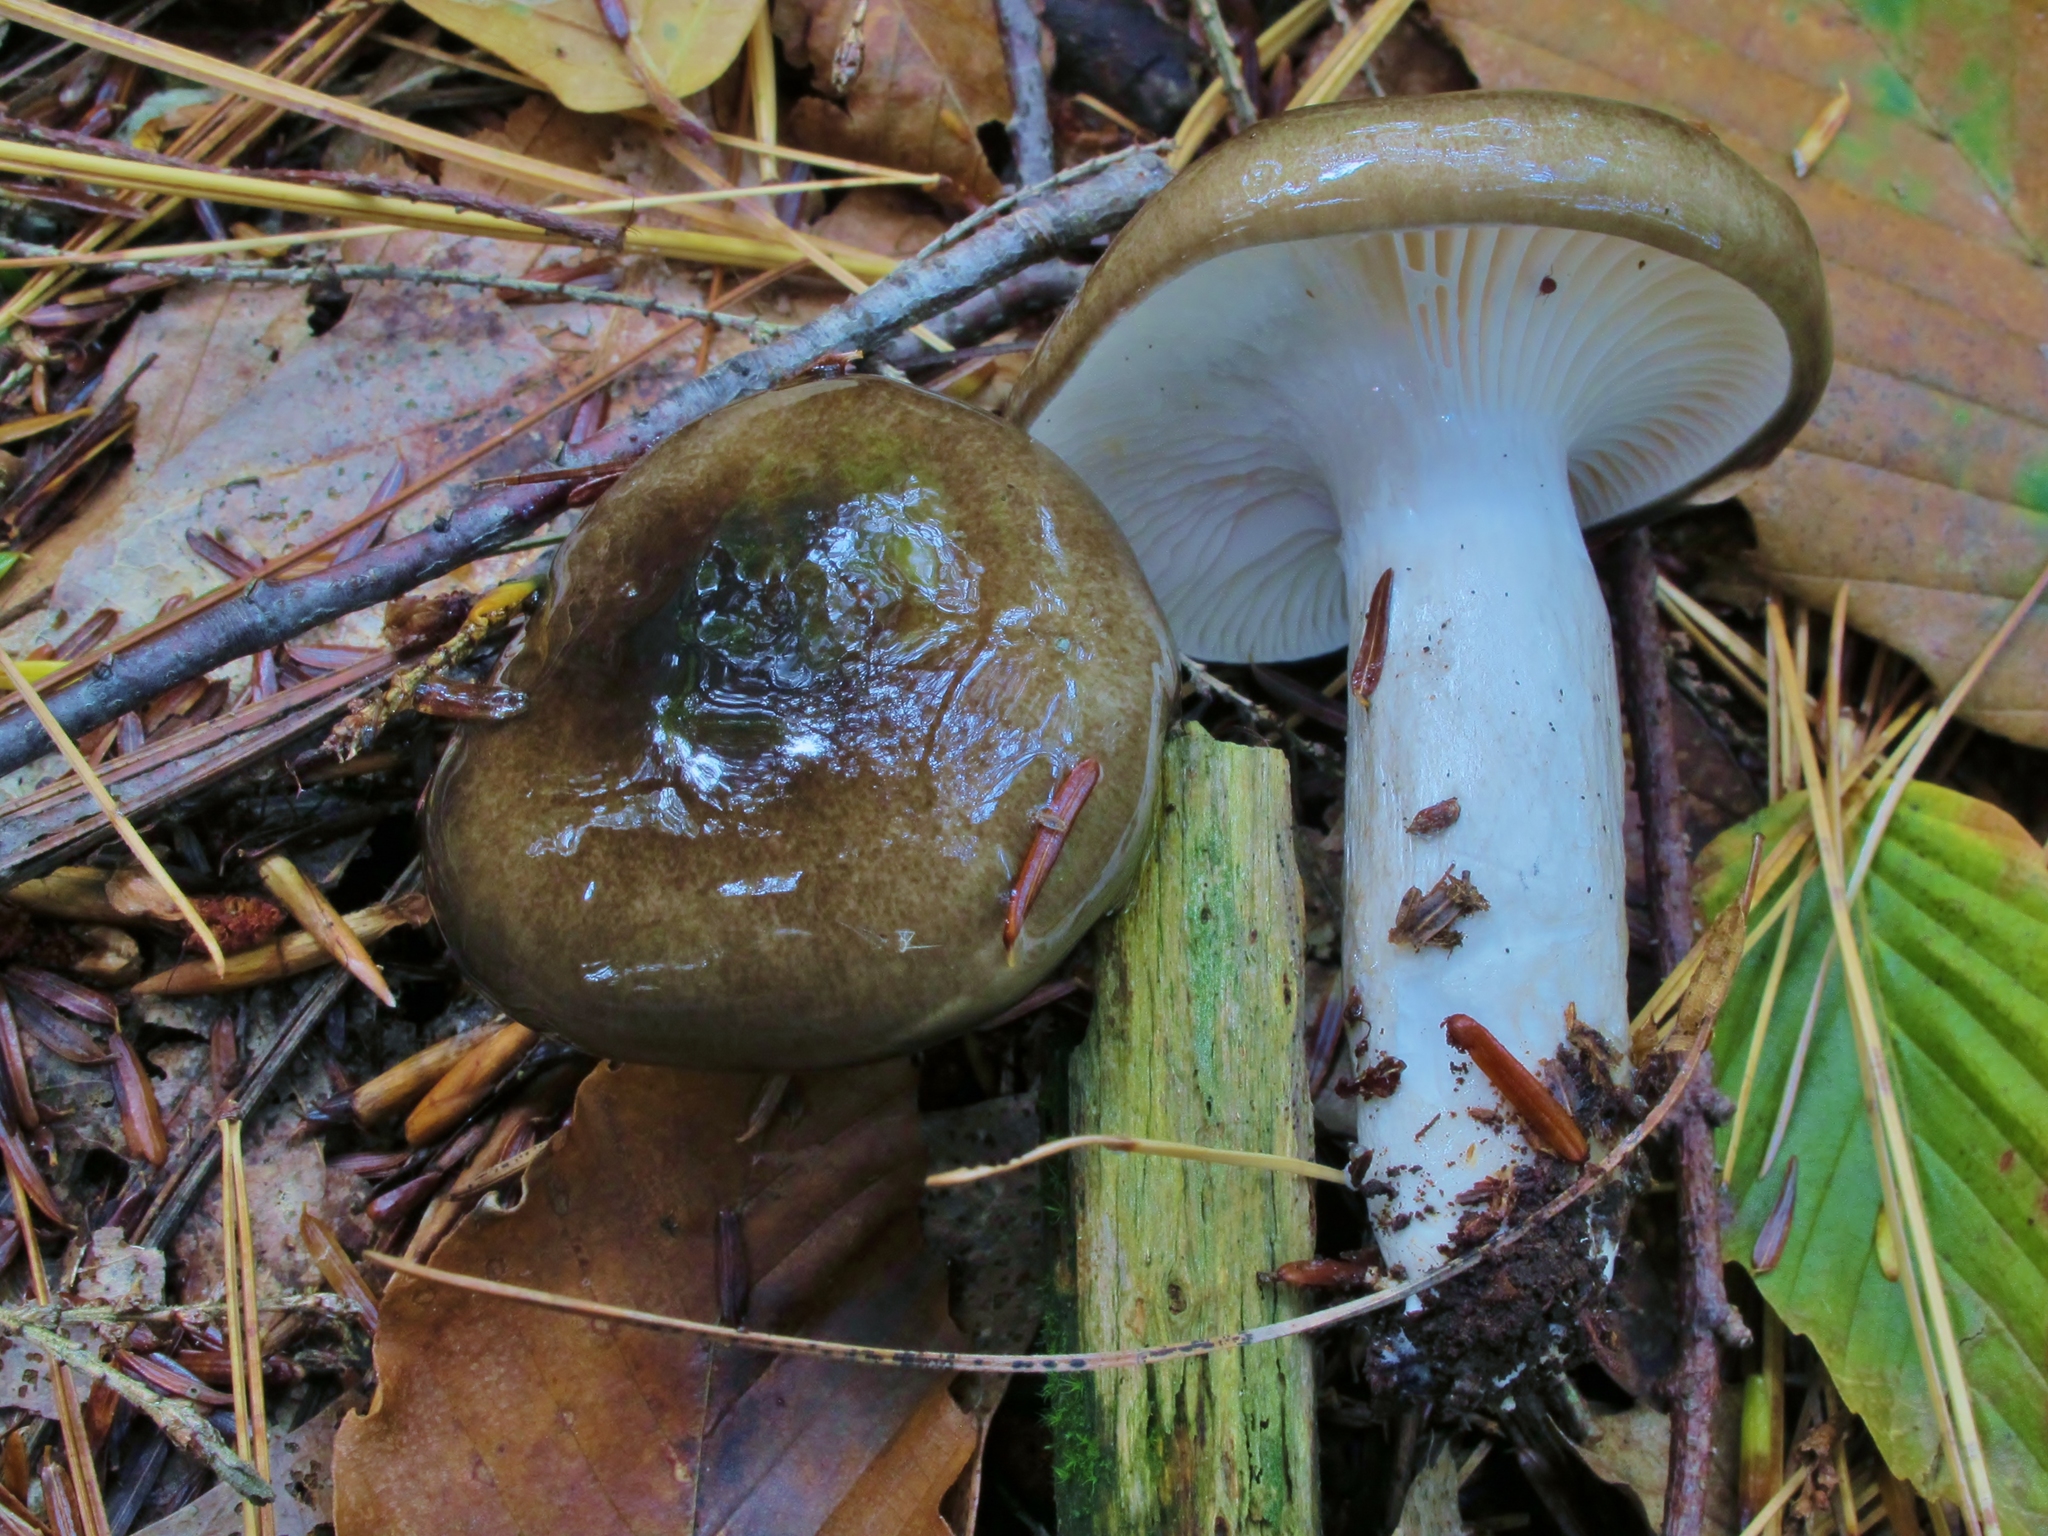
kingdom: Fungi
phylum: Basidiomycota
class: Agaricomycetes
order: Agaricales
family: Hygrophoraceae
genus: Hygrophorus
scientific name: Hygrophorus fuligineus
